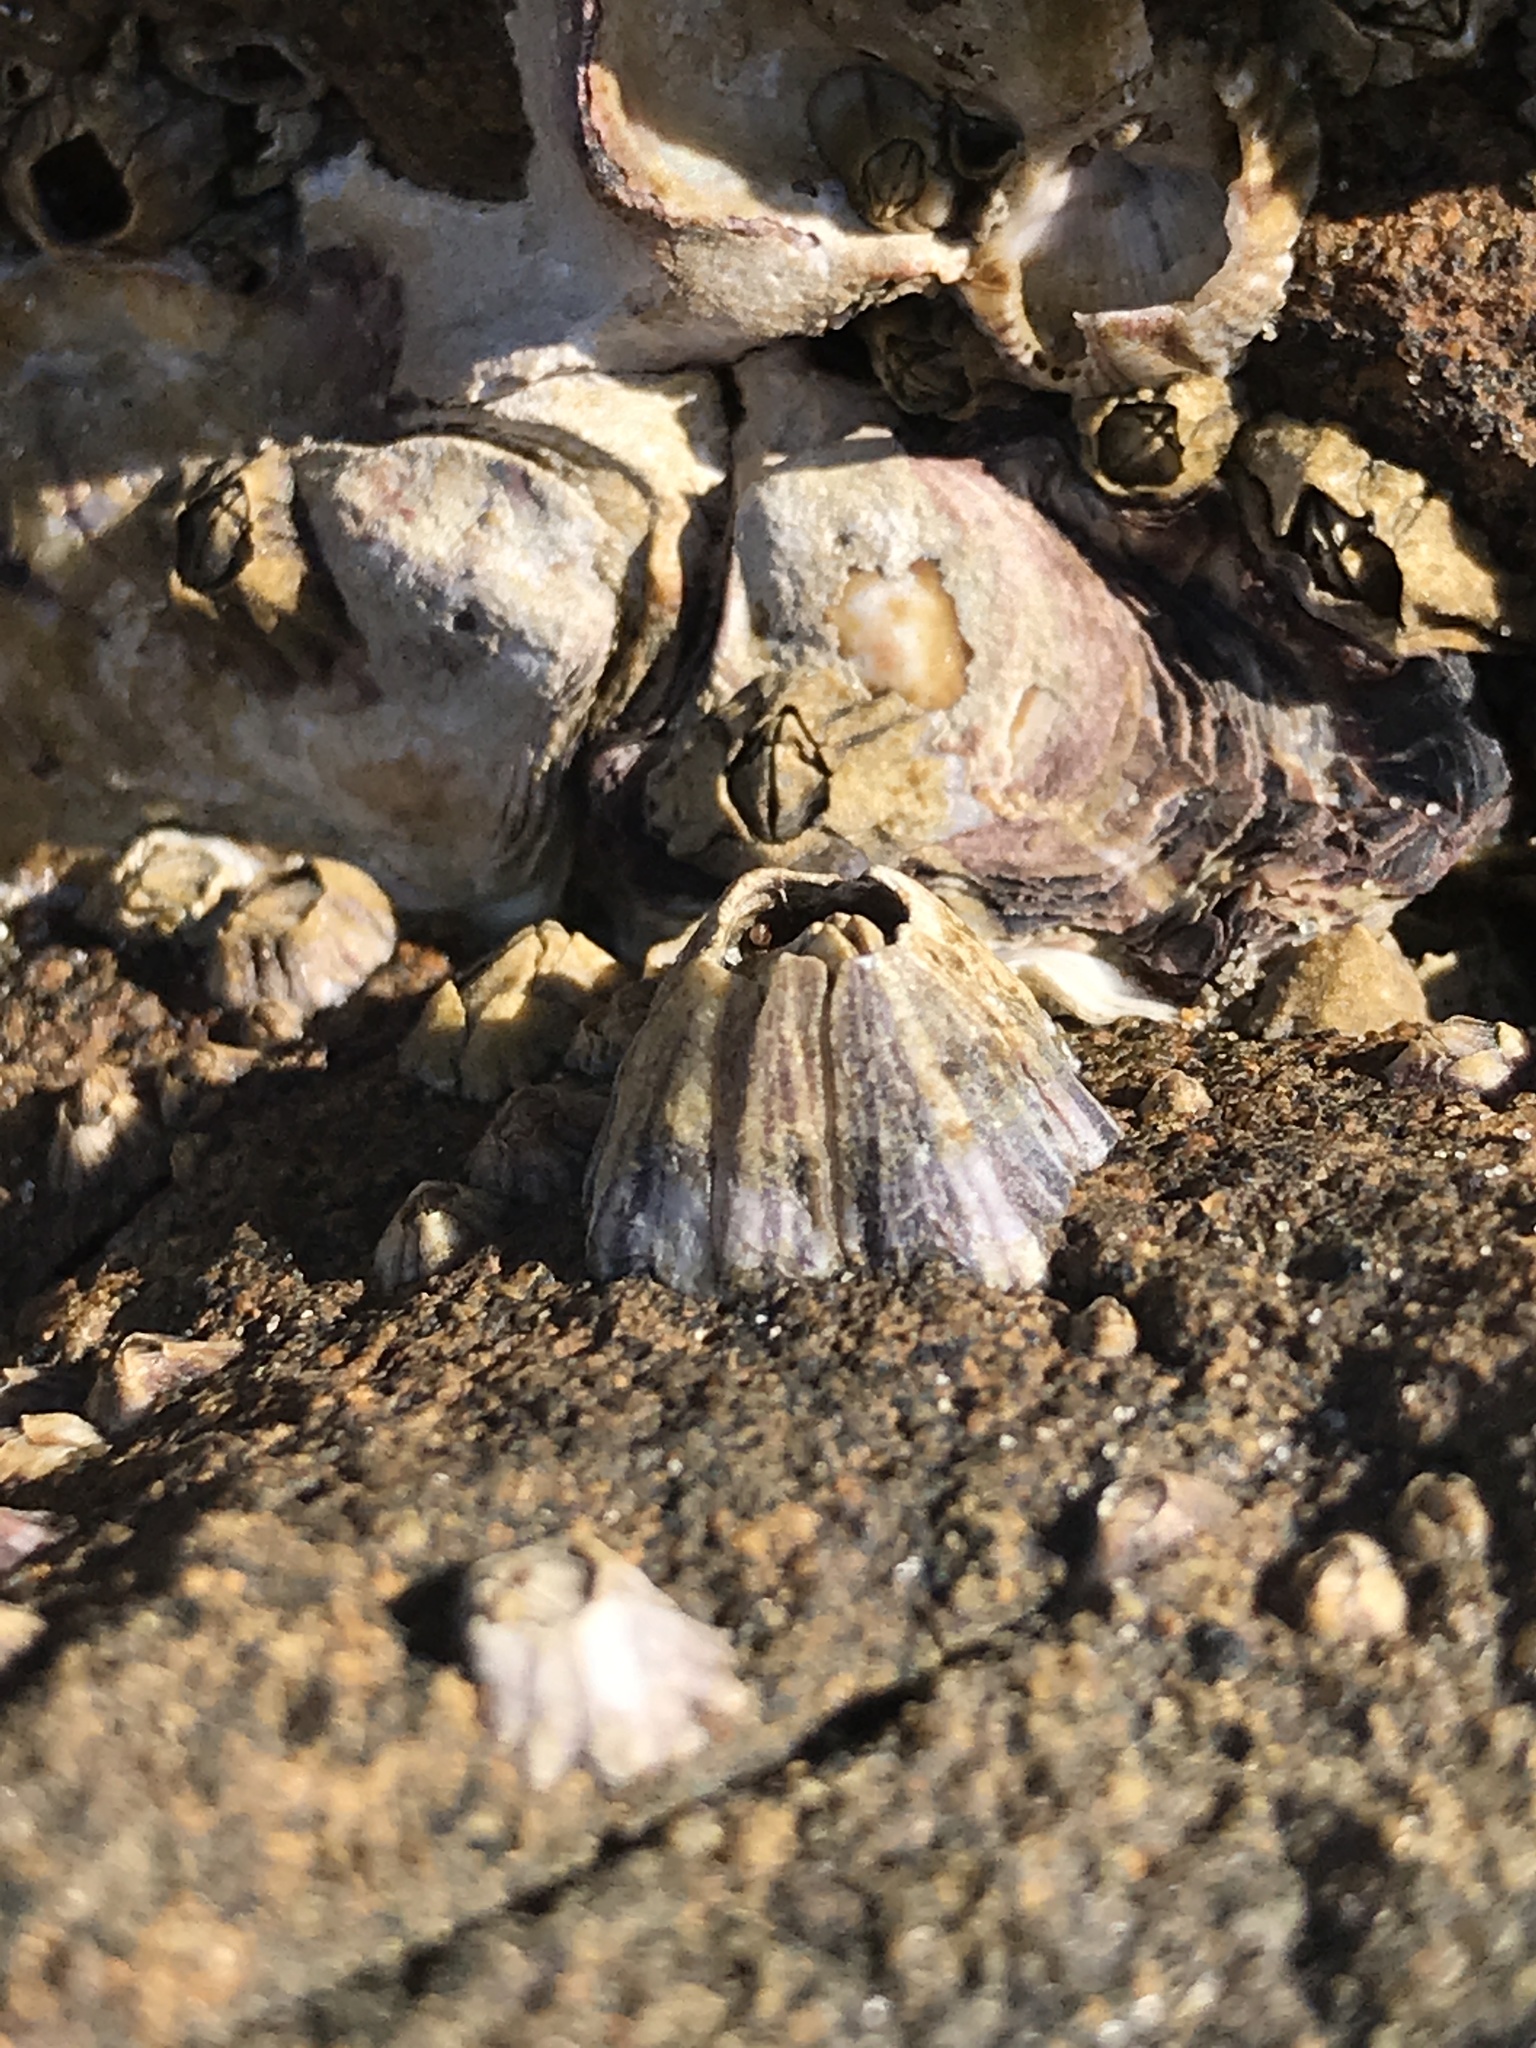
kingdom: Animalia
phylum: Arthropoda
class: Maxillopoda
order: Sessilia
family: Balanidae
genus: Amphibalanus
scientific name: Amphibalanus amphitrite
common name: Striped acorn barnacle
